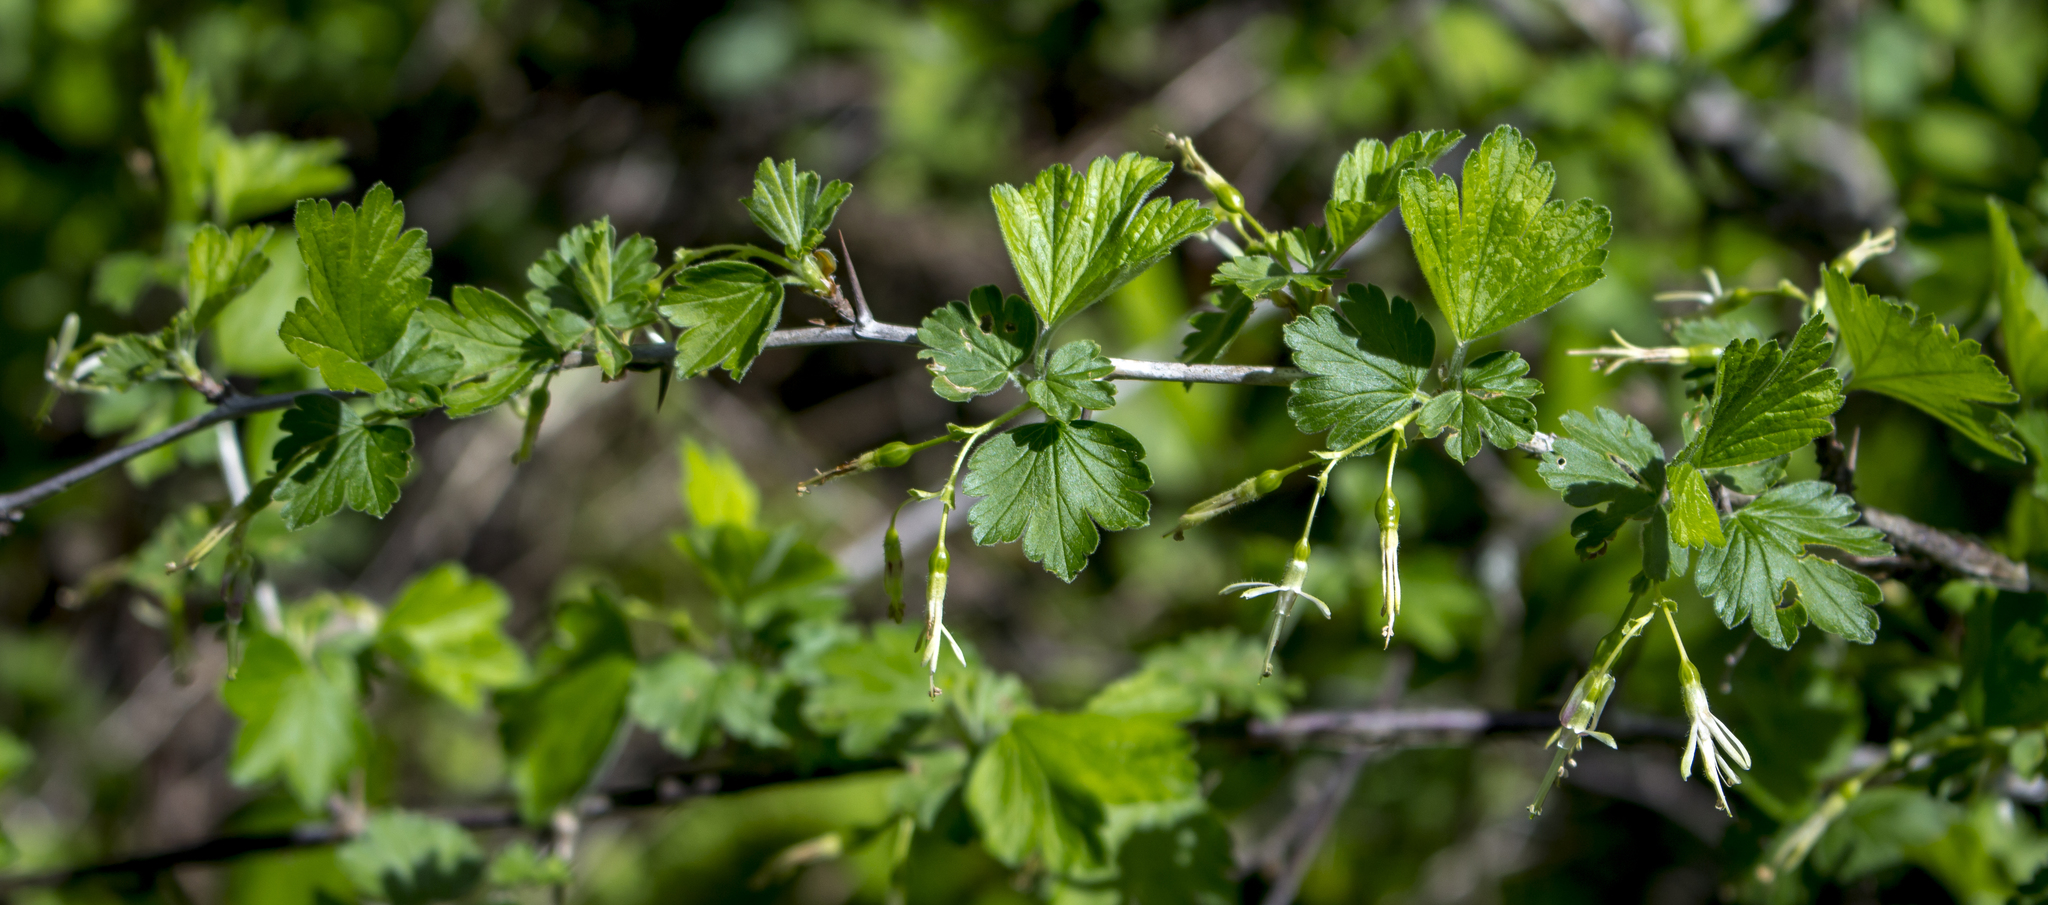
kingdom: Plantae
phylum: Tracheophyta
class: Magnoliopsida
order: Saxifragales
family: Grossulariaceae
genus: Ribes
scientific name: Ribes missouriense
